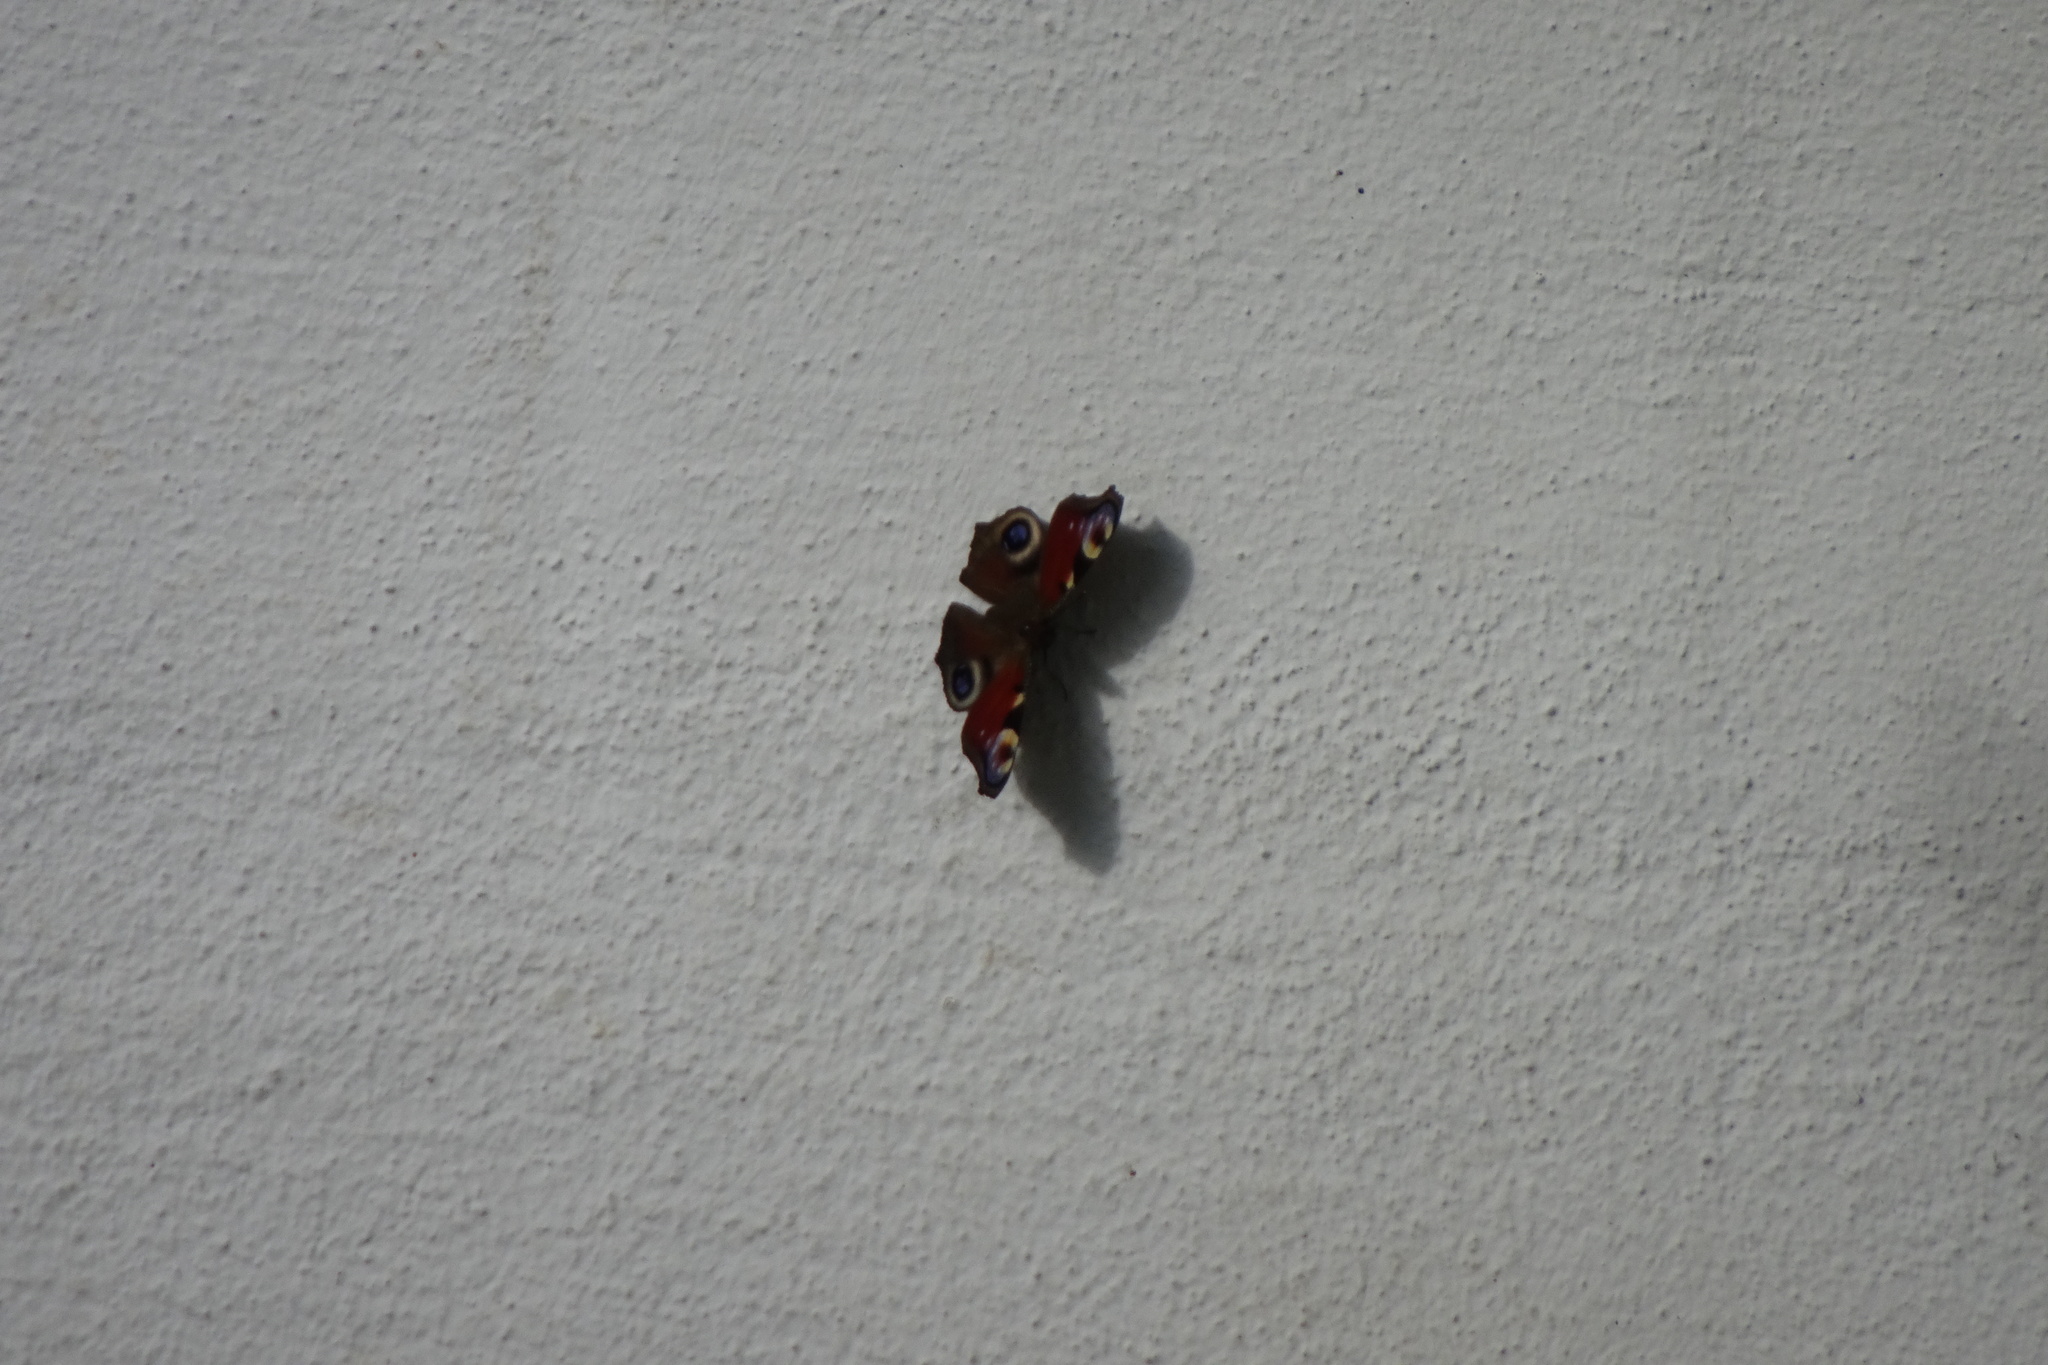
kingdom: Animalia
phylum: Arthropoda
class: Insecta
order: Lepidoptera
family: Nymphalidae
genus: Aglais
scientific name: Aglais io
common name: Peacock
